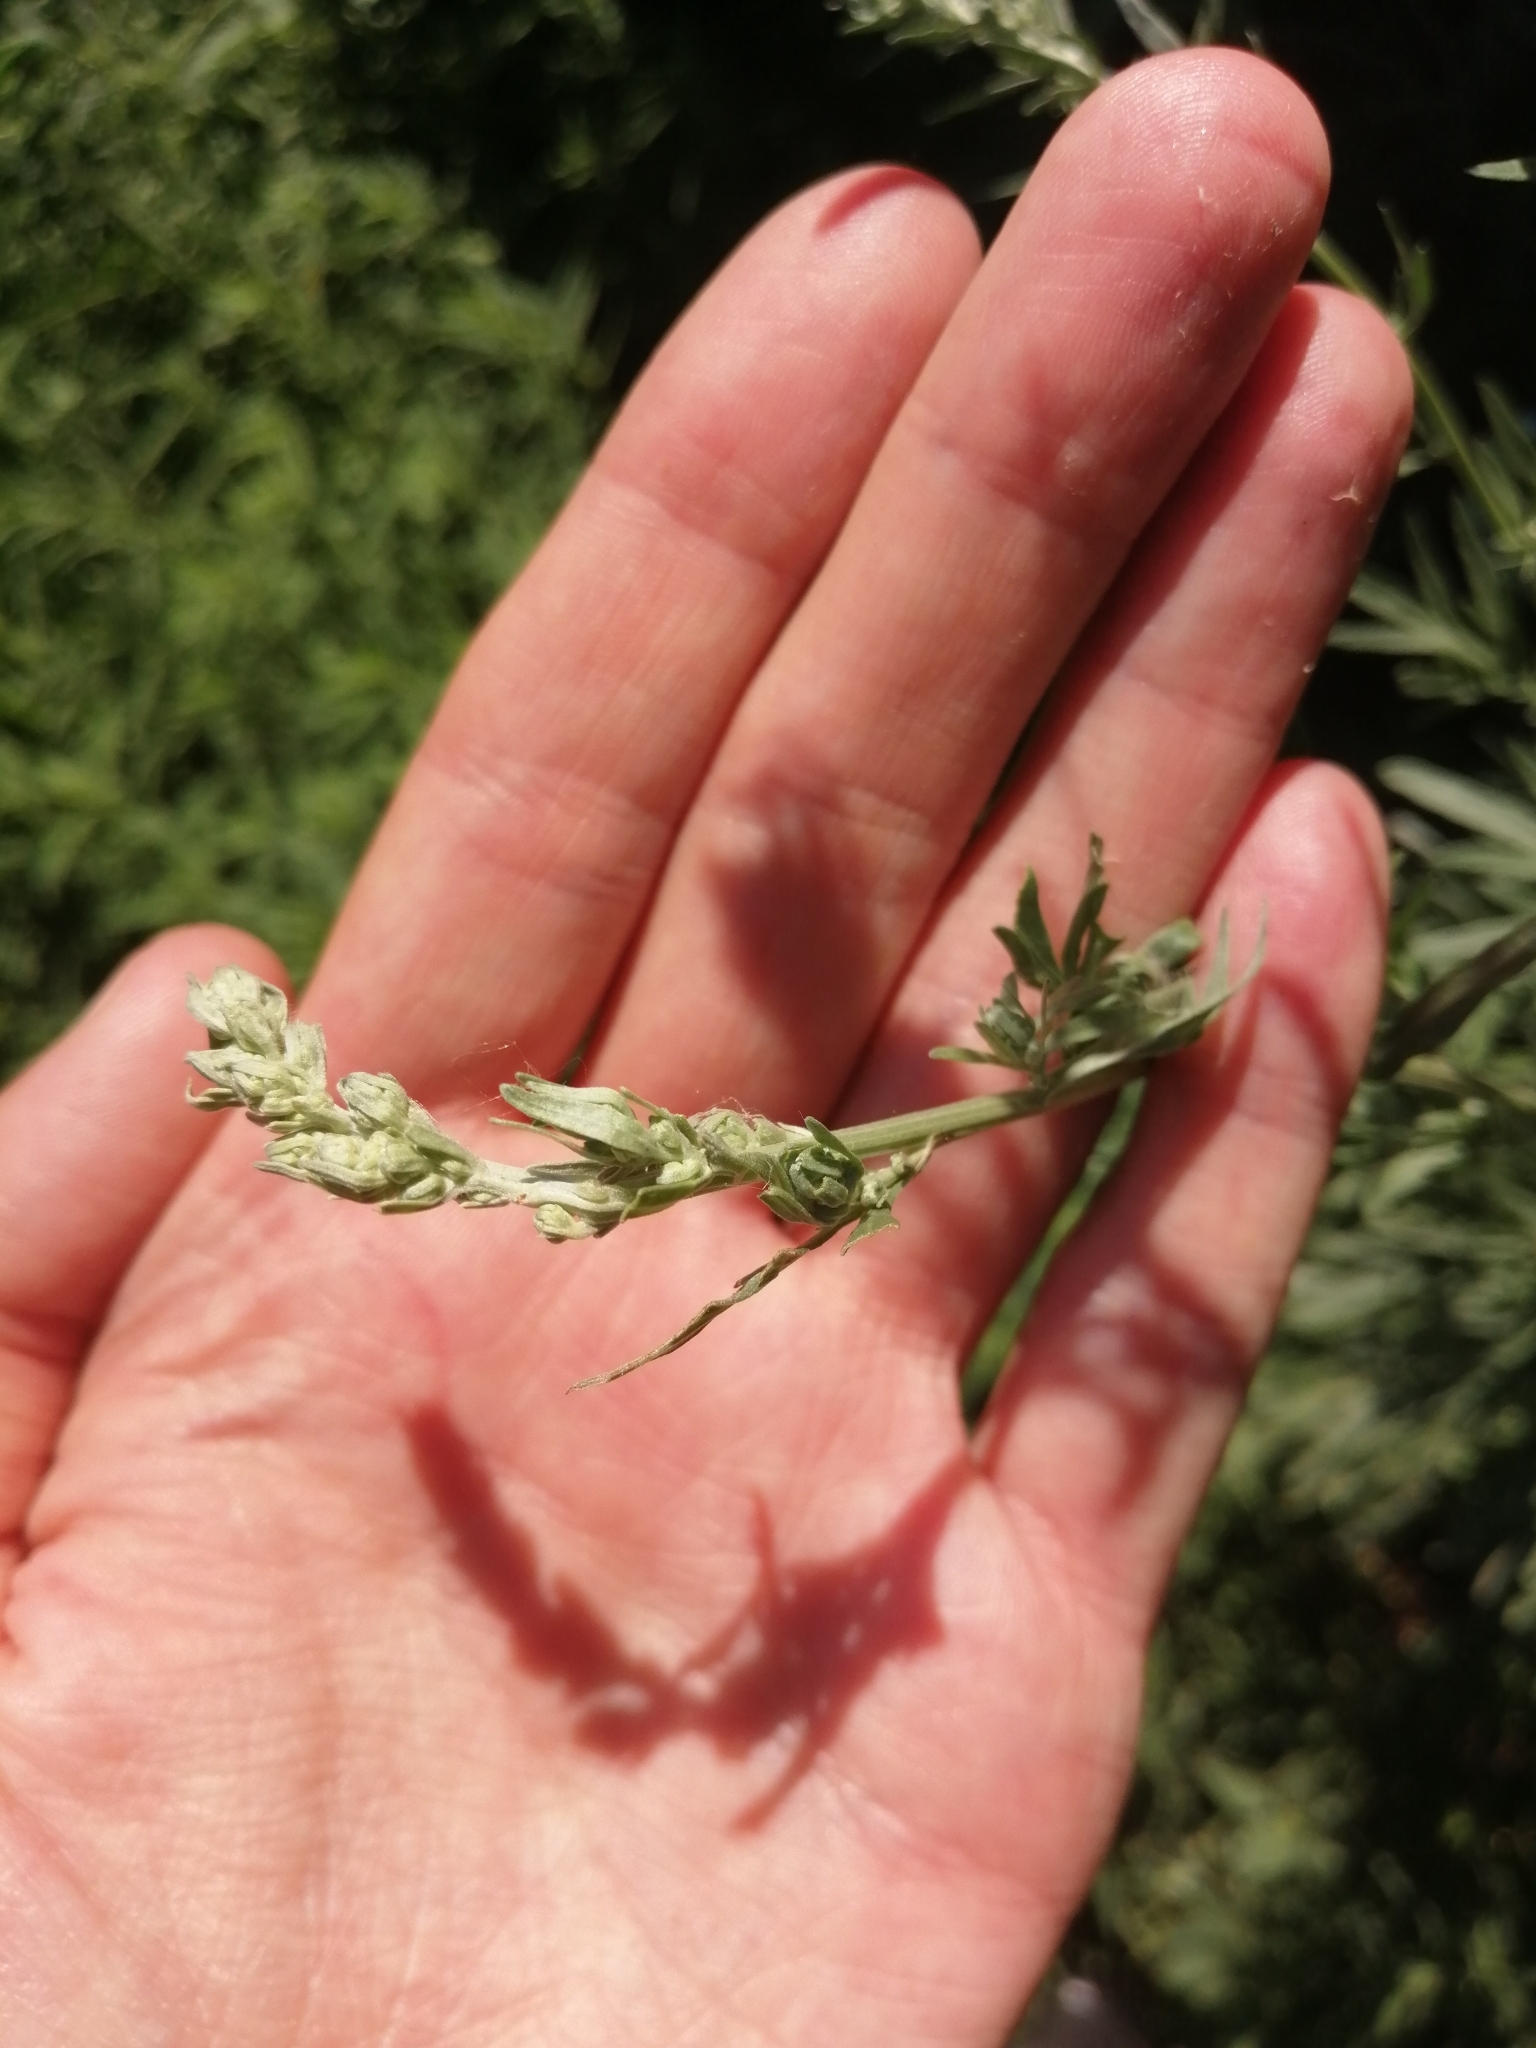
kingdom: Plantae
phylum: Tracheophyta
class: Magnoliopsida
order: Asterales
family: Asteraceae
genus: Artemisia
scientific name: Artemisia absinthium
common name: Wormwood
